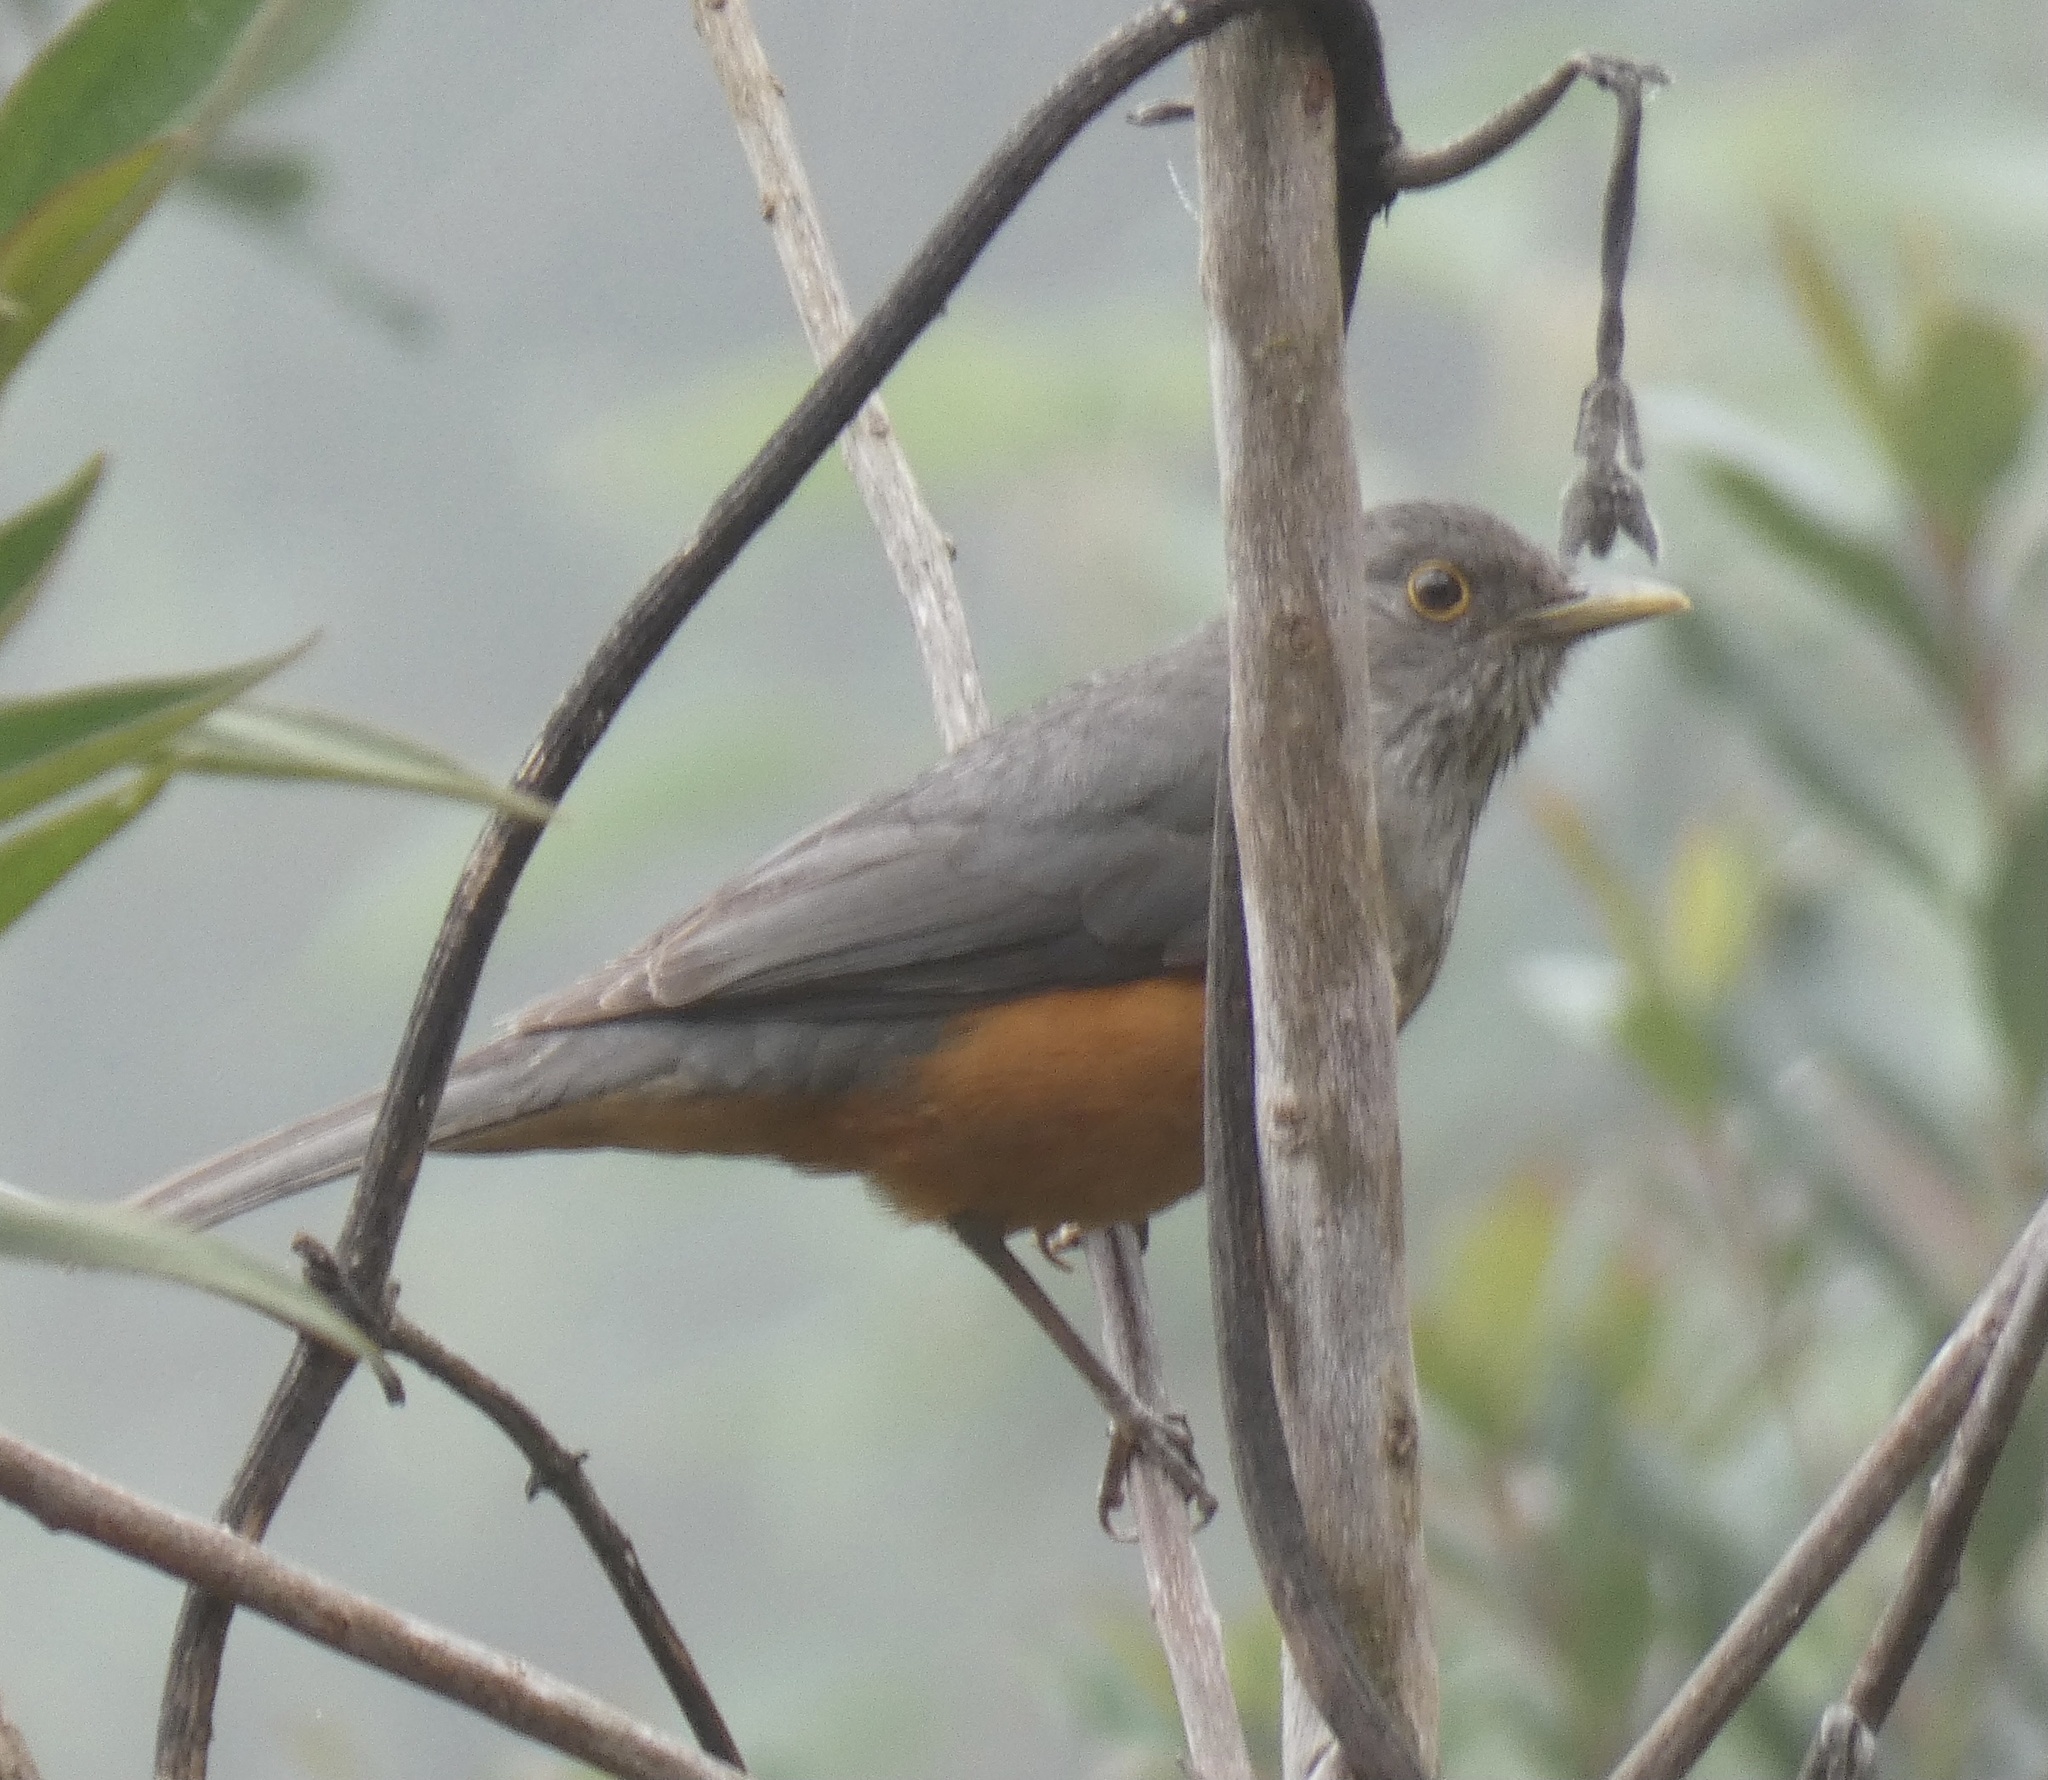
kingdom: Animalia
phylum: Chordata
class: Aves
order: Passeriformes
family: Turdidae
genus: Turdus
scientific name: Turdus rufiventris
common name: Rufous-bellied thrush
